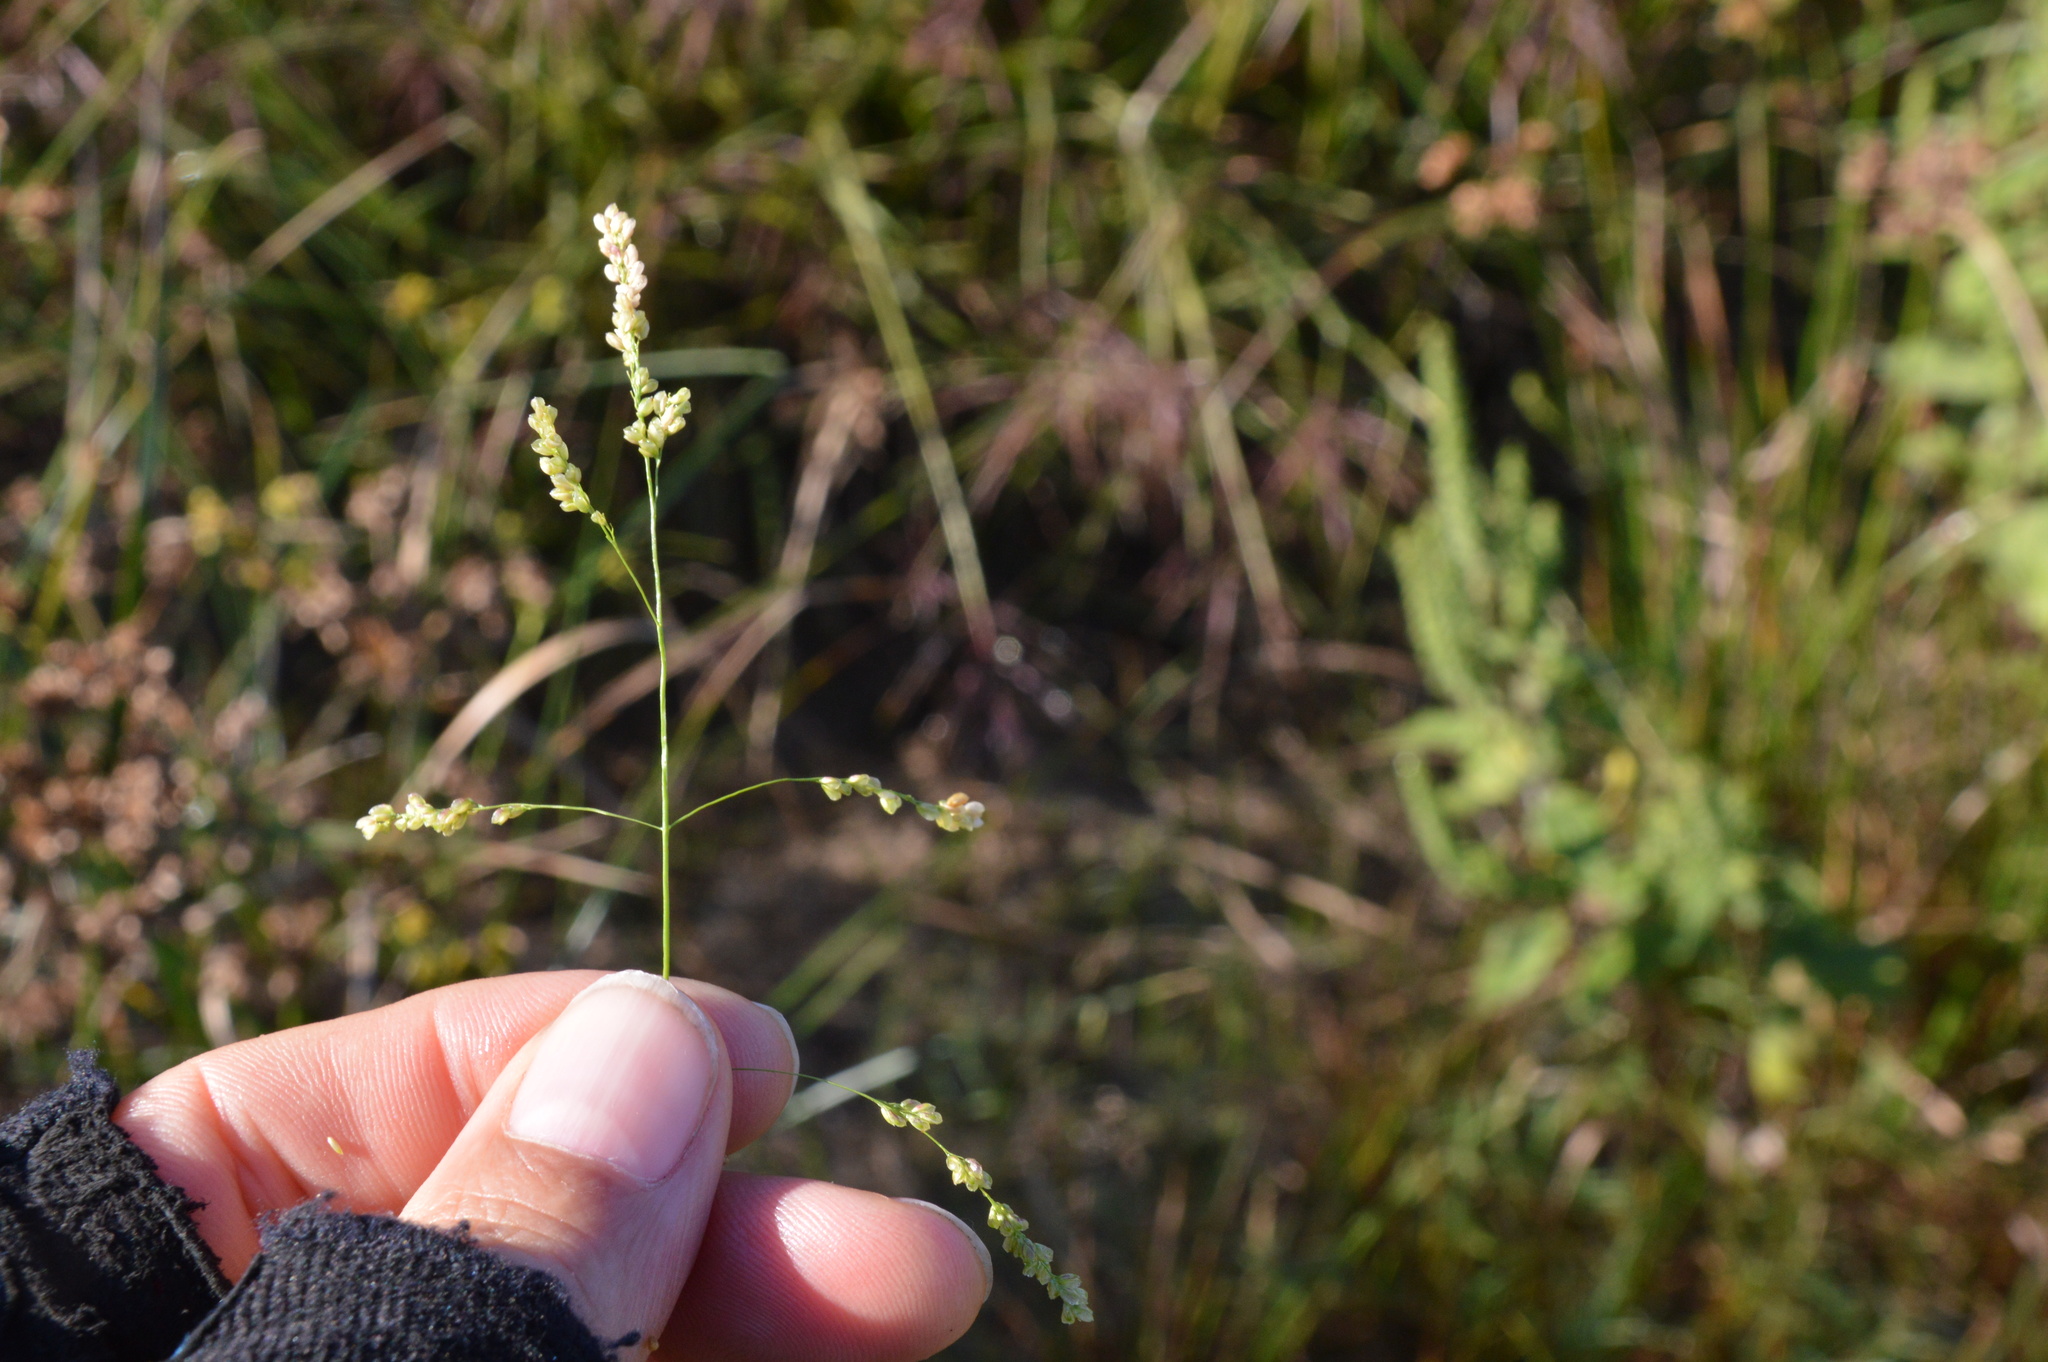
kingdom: Plantae
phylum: Tracheophyta
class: Liliopsida
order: Poales
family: Poaceae
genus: Steinchisma
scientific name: Steinchisma hians
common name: Gaping panic grass
